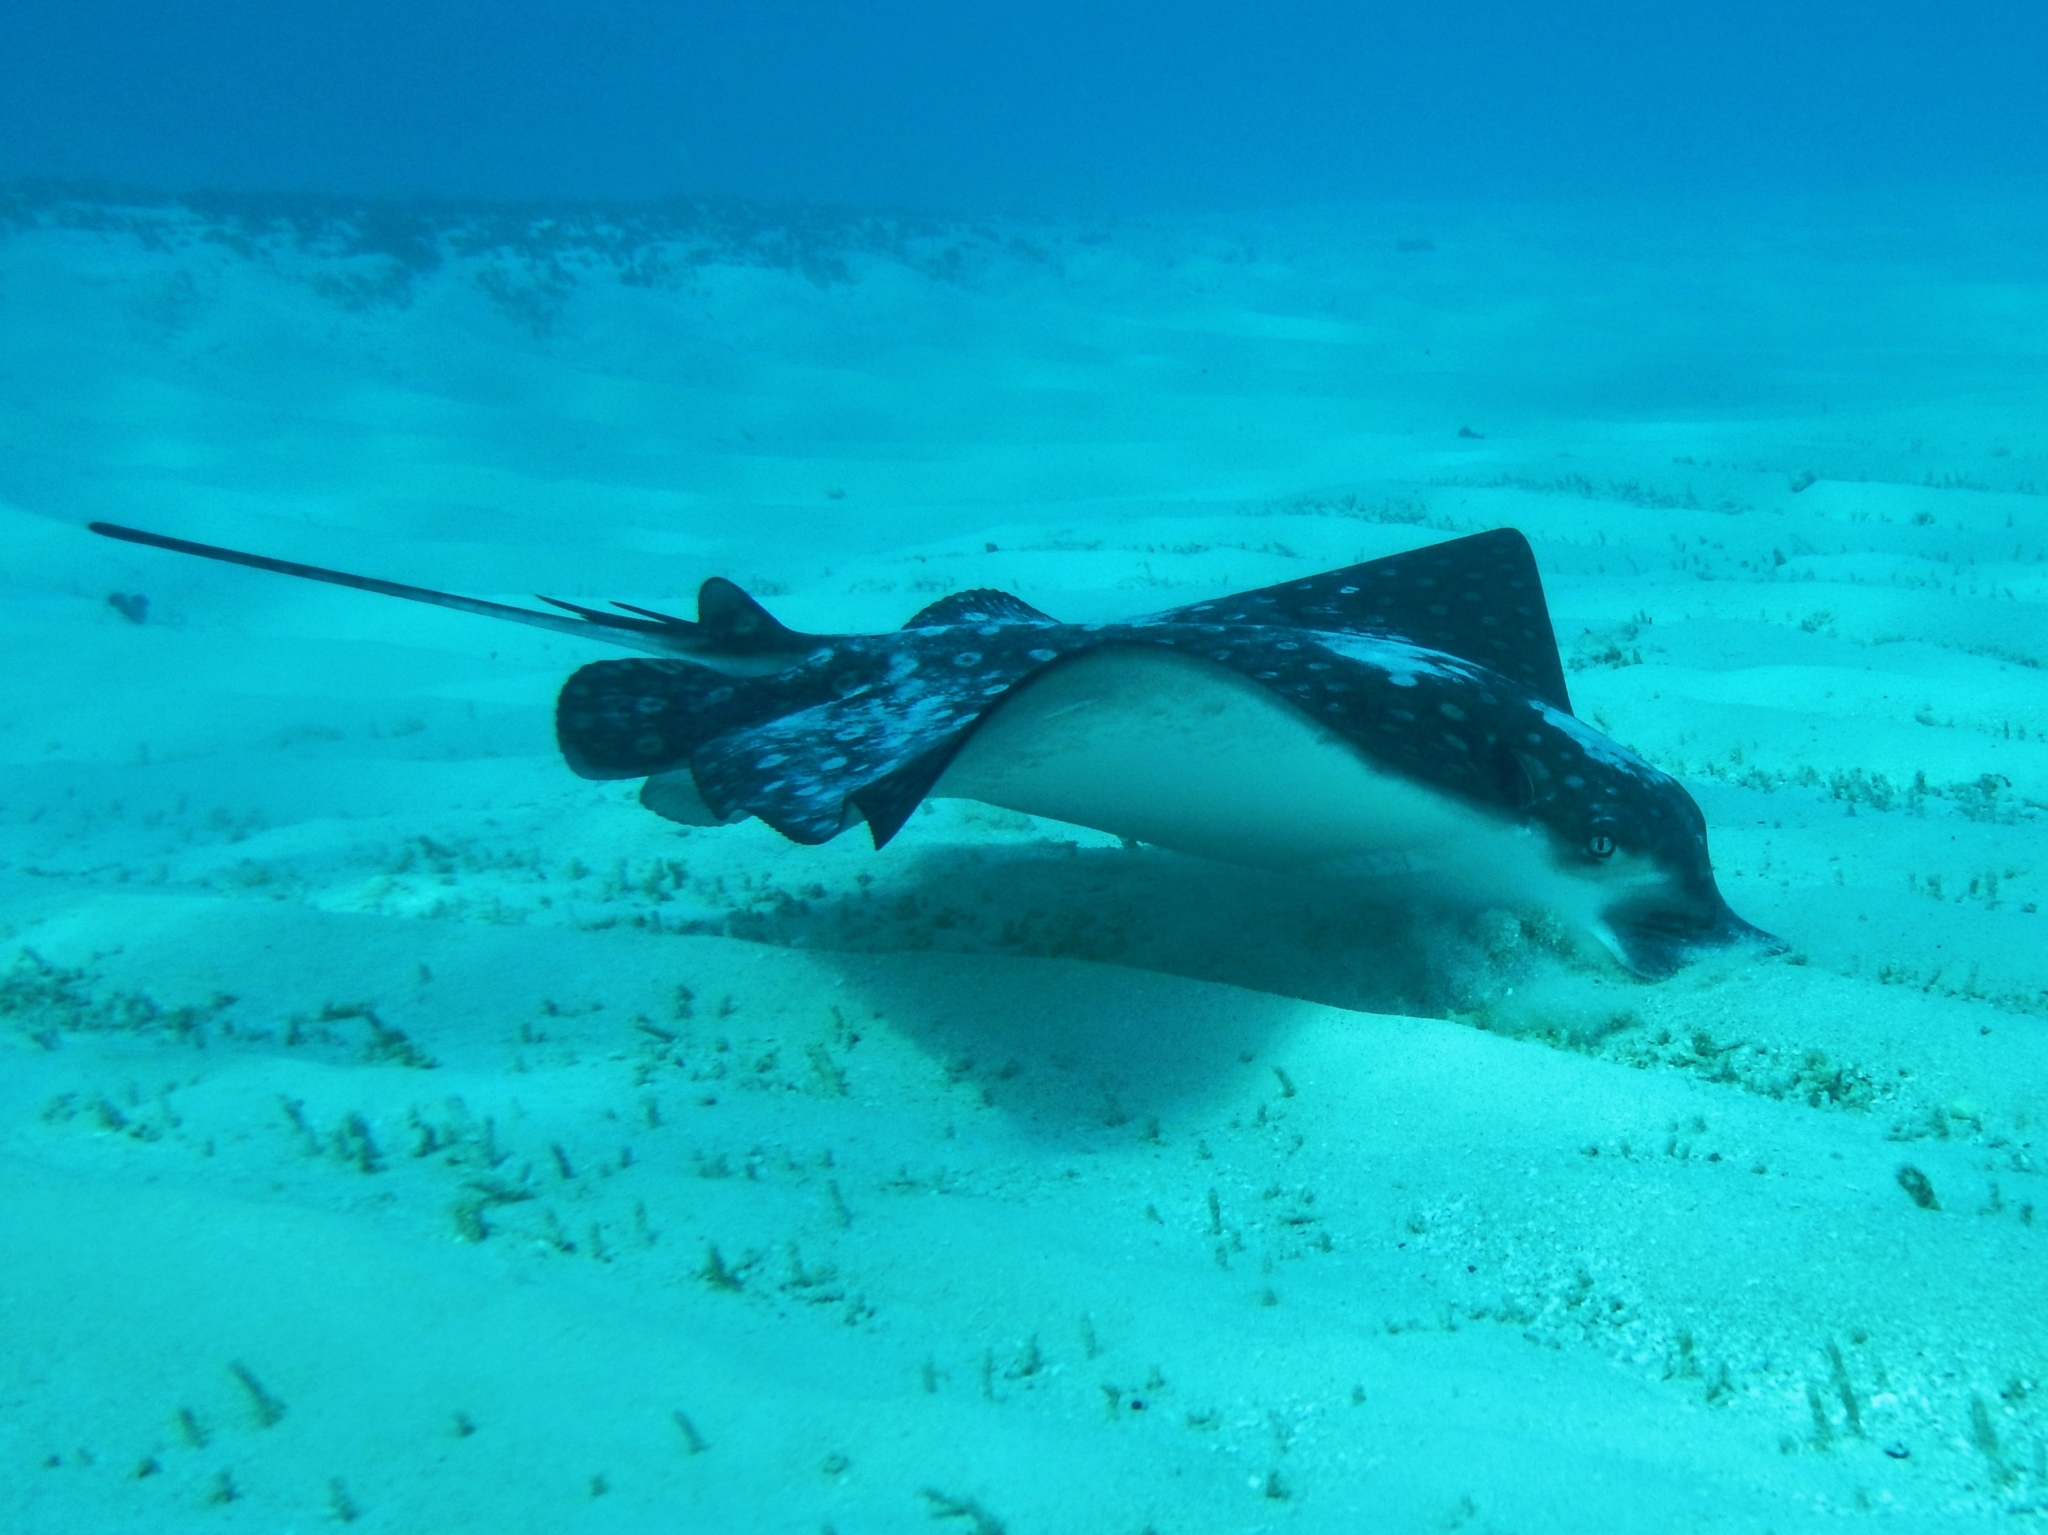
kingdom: Animalia
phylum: Chordata
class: Elasmobranchii
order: Myliobatiformes
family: Myliobatidae
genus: Aetobatus
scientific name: Aetobatus narinari
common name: Spotted eagle ray
